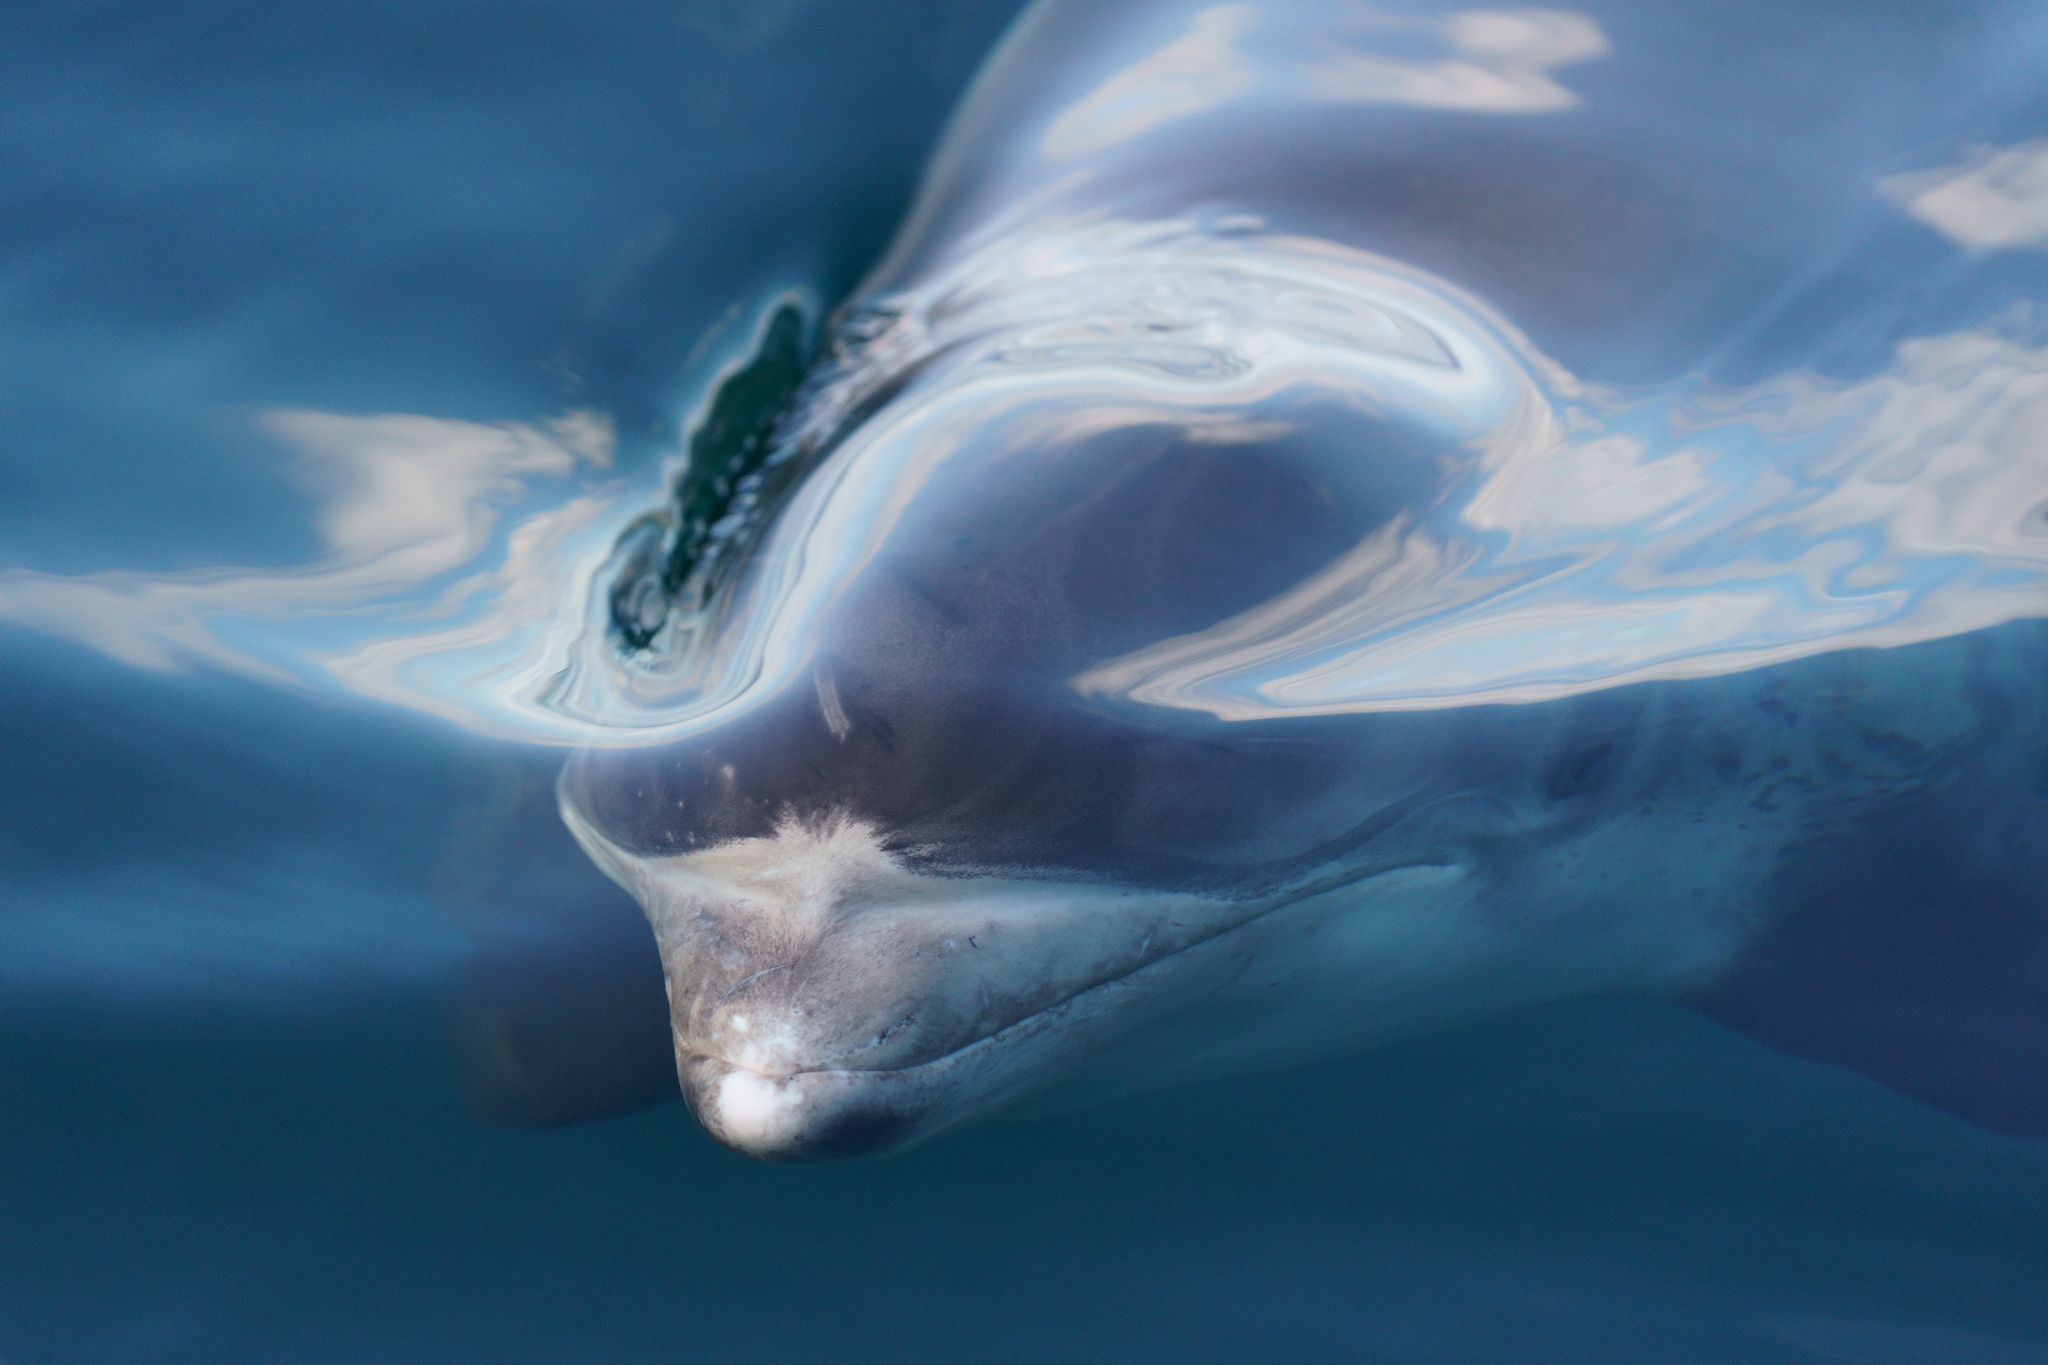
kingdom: Animalia
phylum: Chordata
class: Mammalia
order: Cetacea
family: Delphinidae
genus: Lagenorhynchus
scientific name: Lagenorhynchus albirostris
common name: White-beaked dolphin
